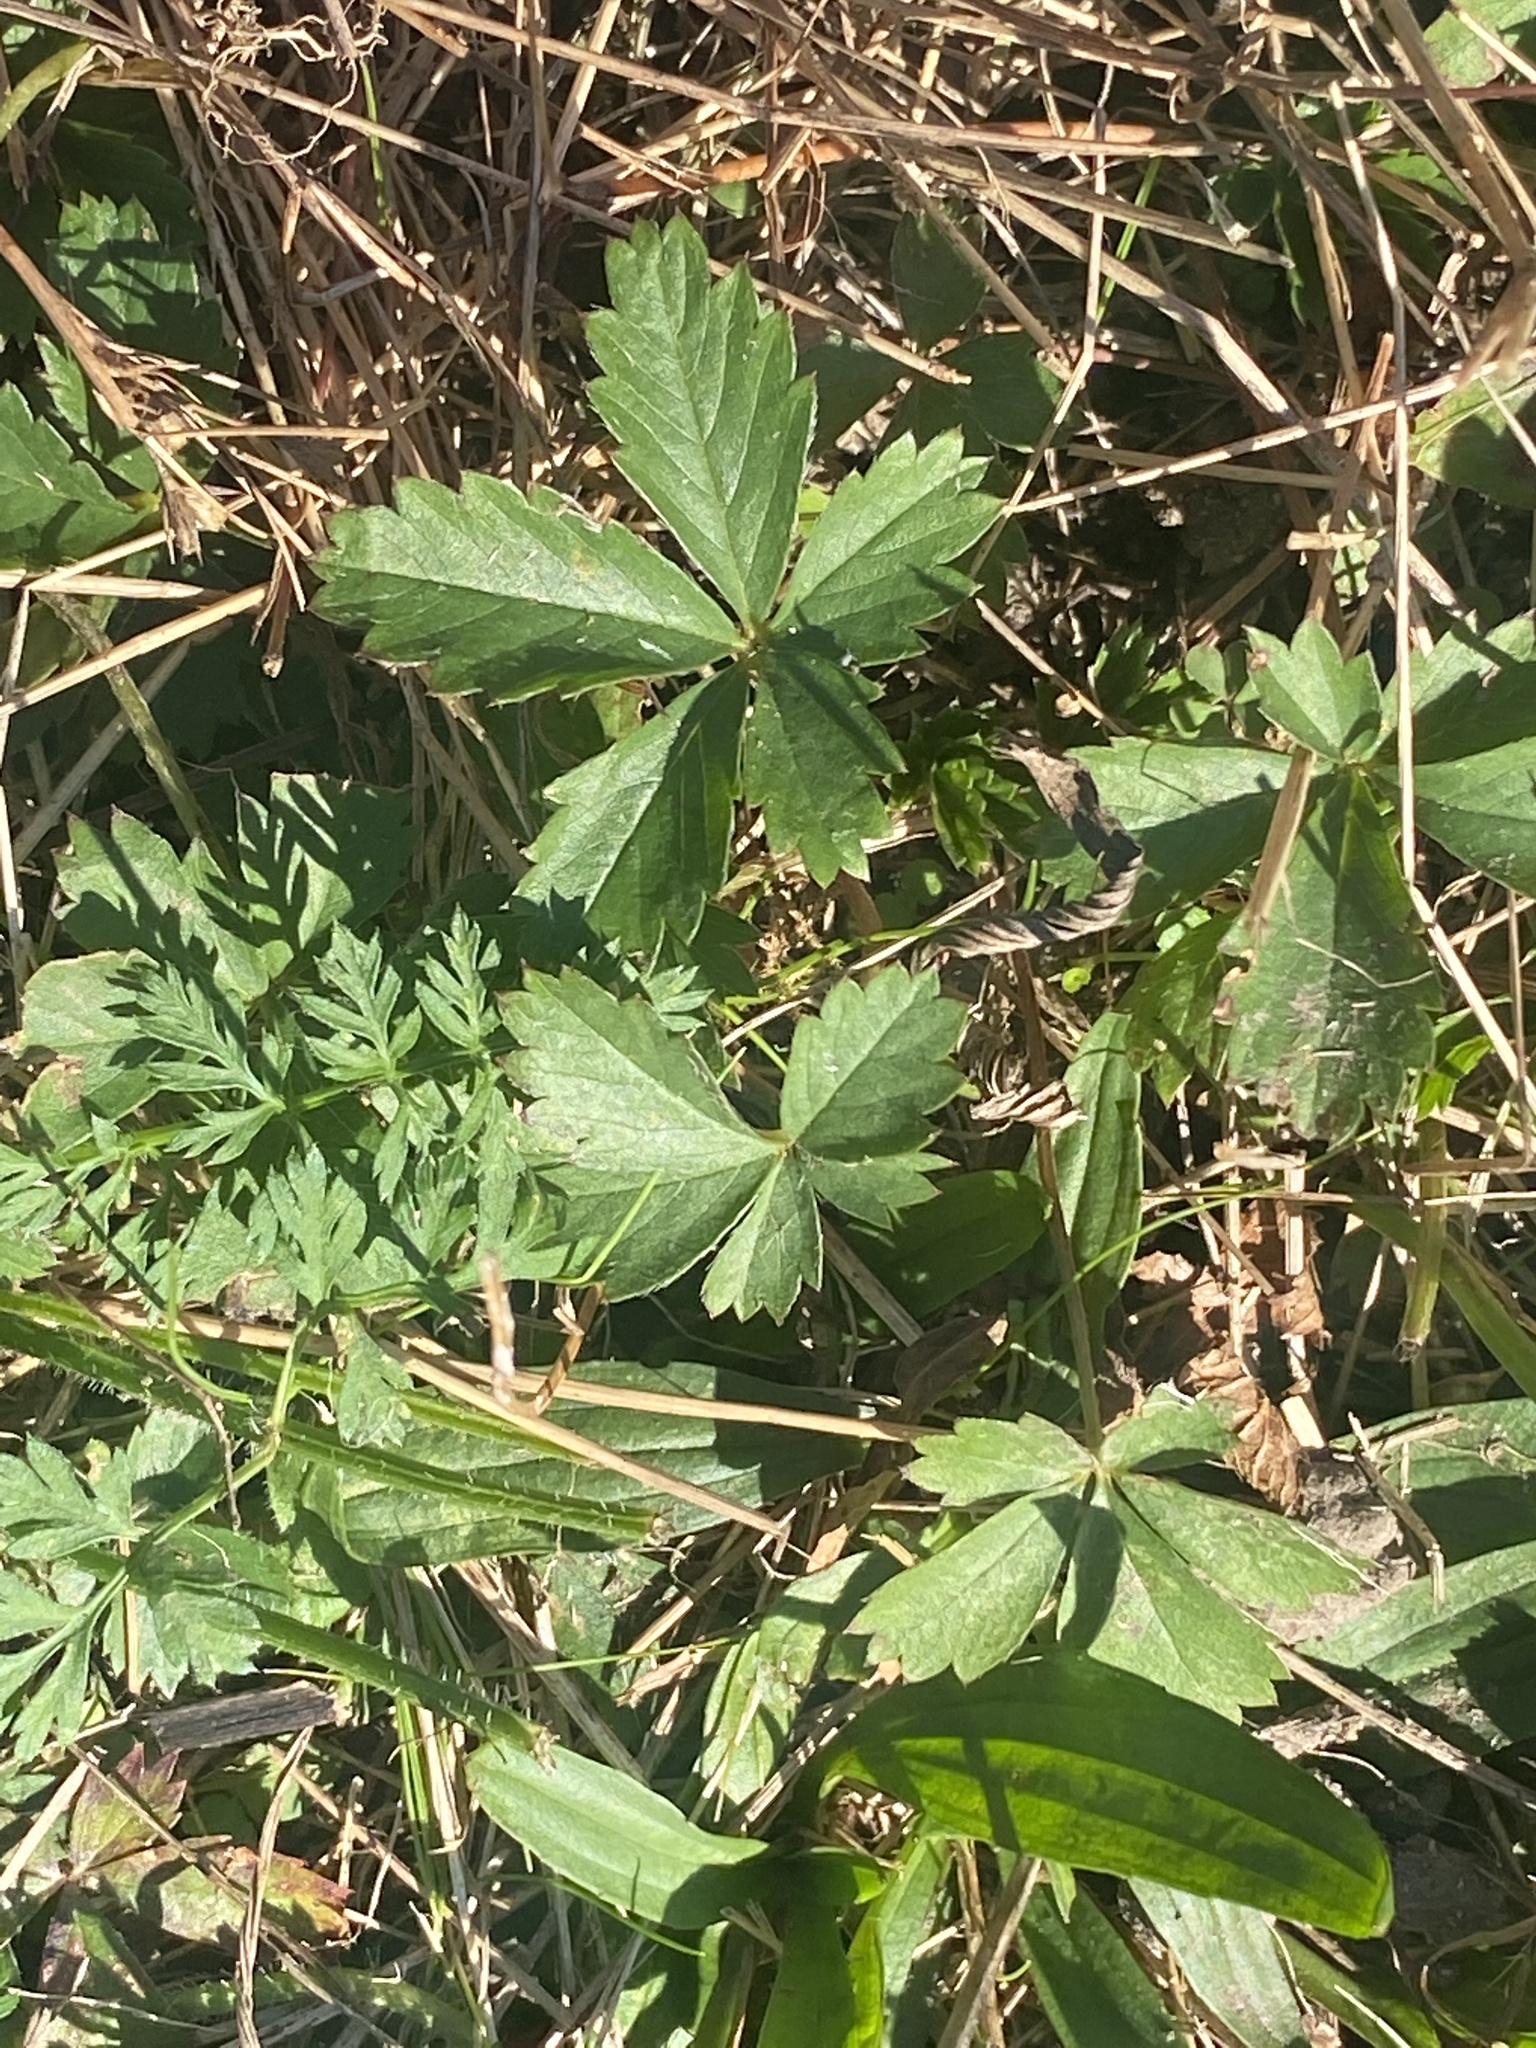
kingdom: Plantae
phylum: Tracheophyta
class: Magnoliopsida
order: Rosales
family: Rosaceae
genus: Potentilla
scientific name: Potentilla canadensis
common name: Canada cinquefoil
